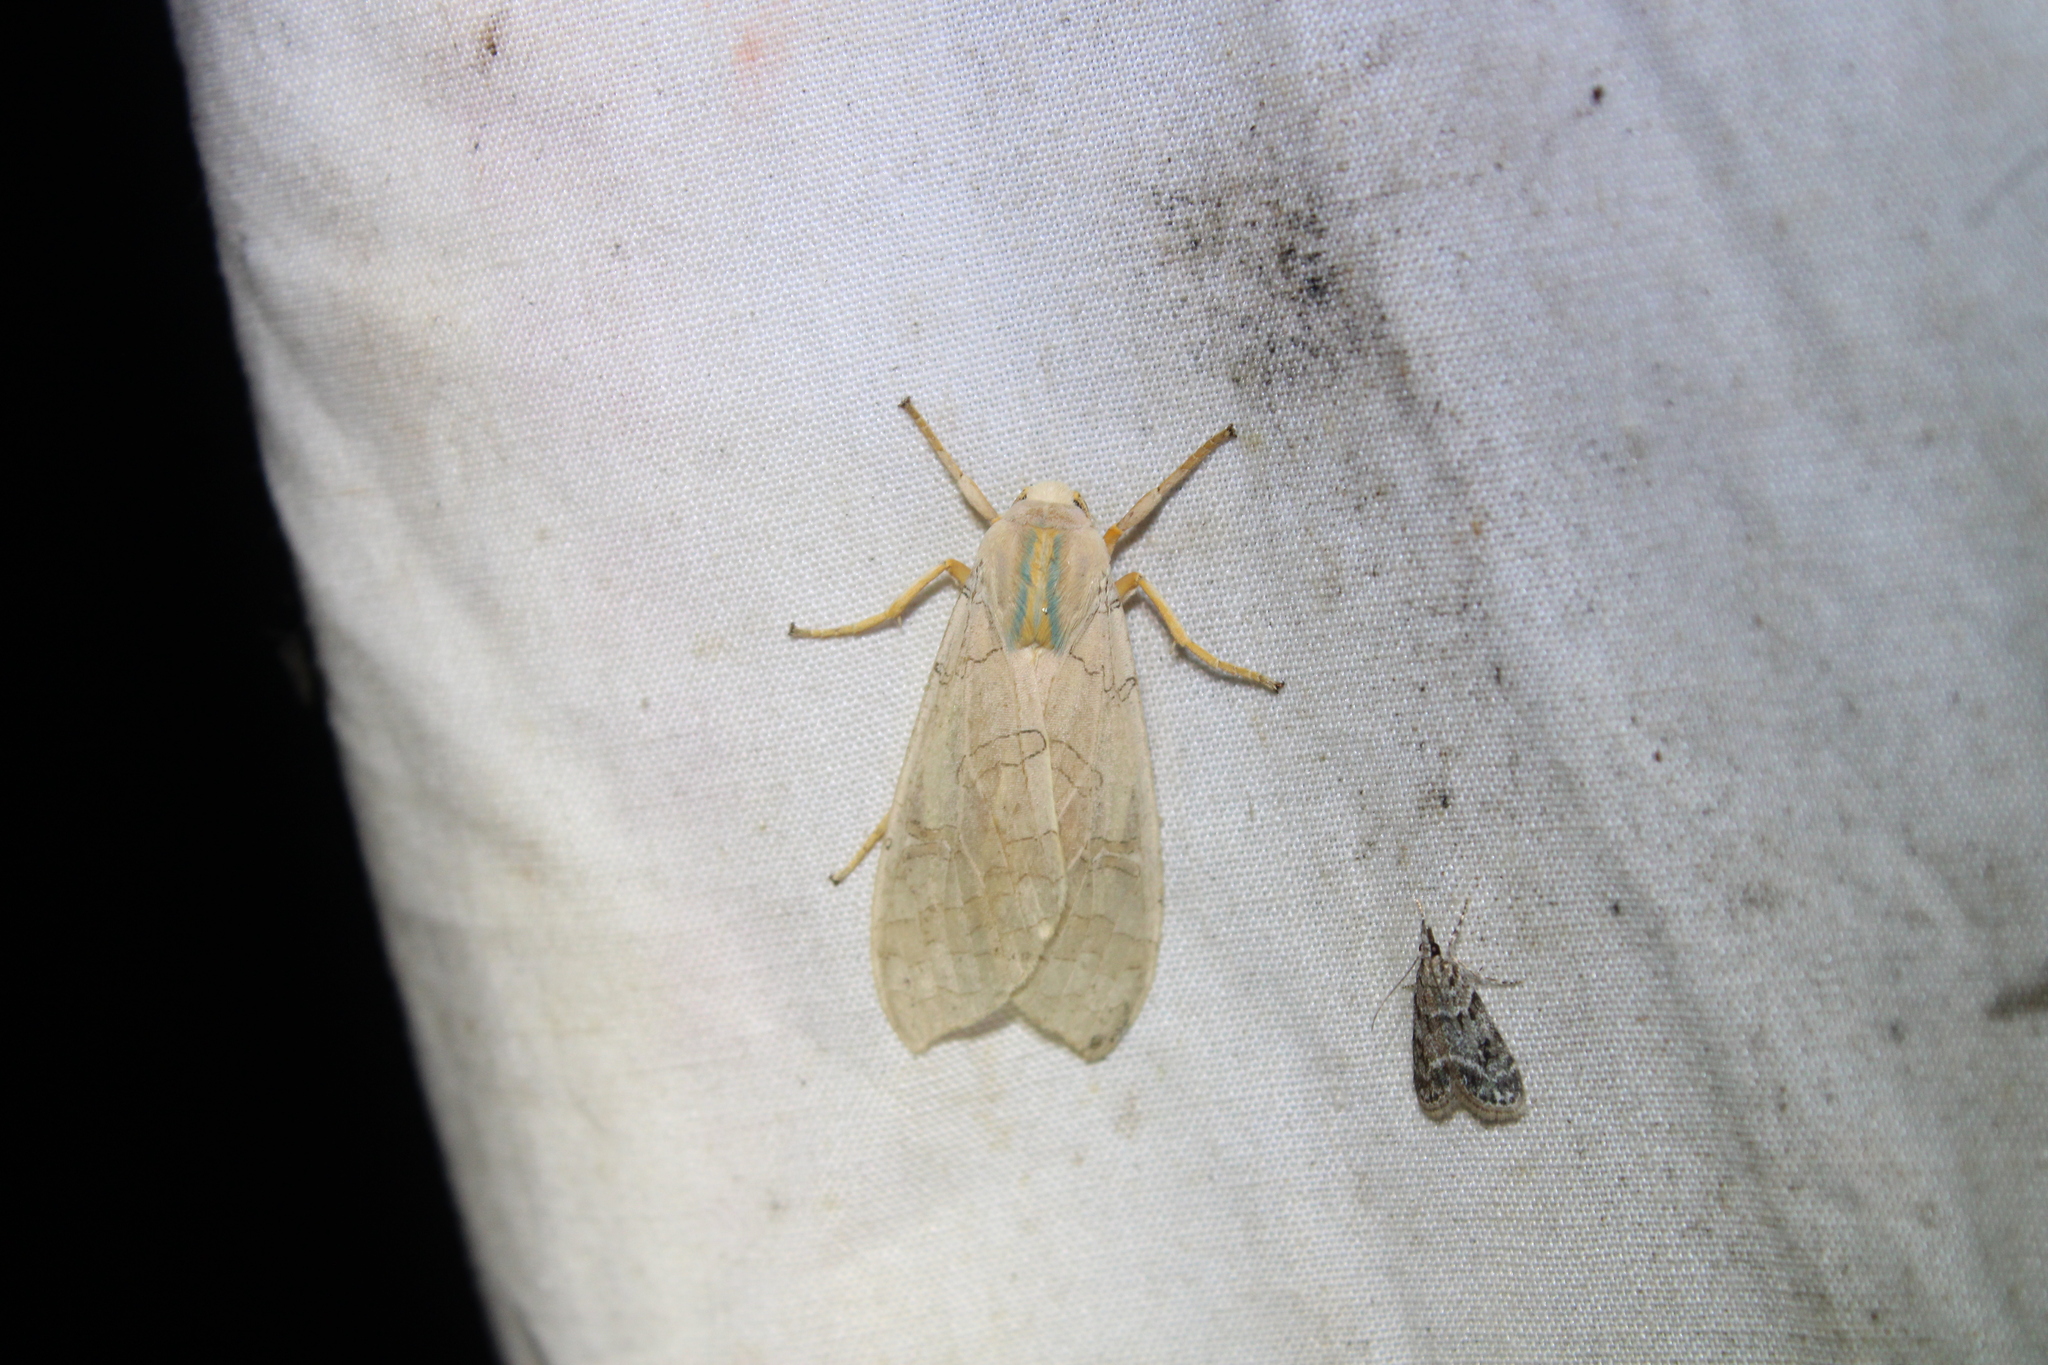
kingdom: Animalia
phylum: Arthropoda
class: Insecta
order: Lepidoptera
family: Erebidae
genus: Halysidota
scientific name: Halysidota
